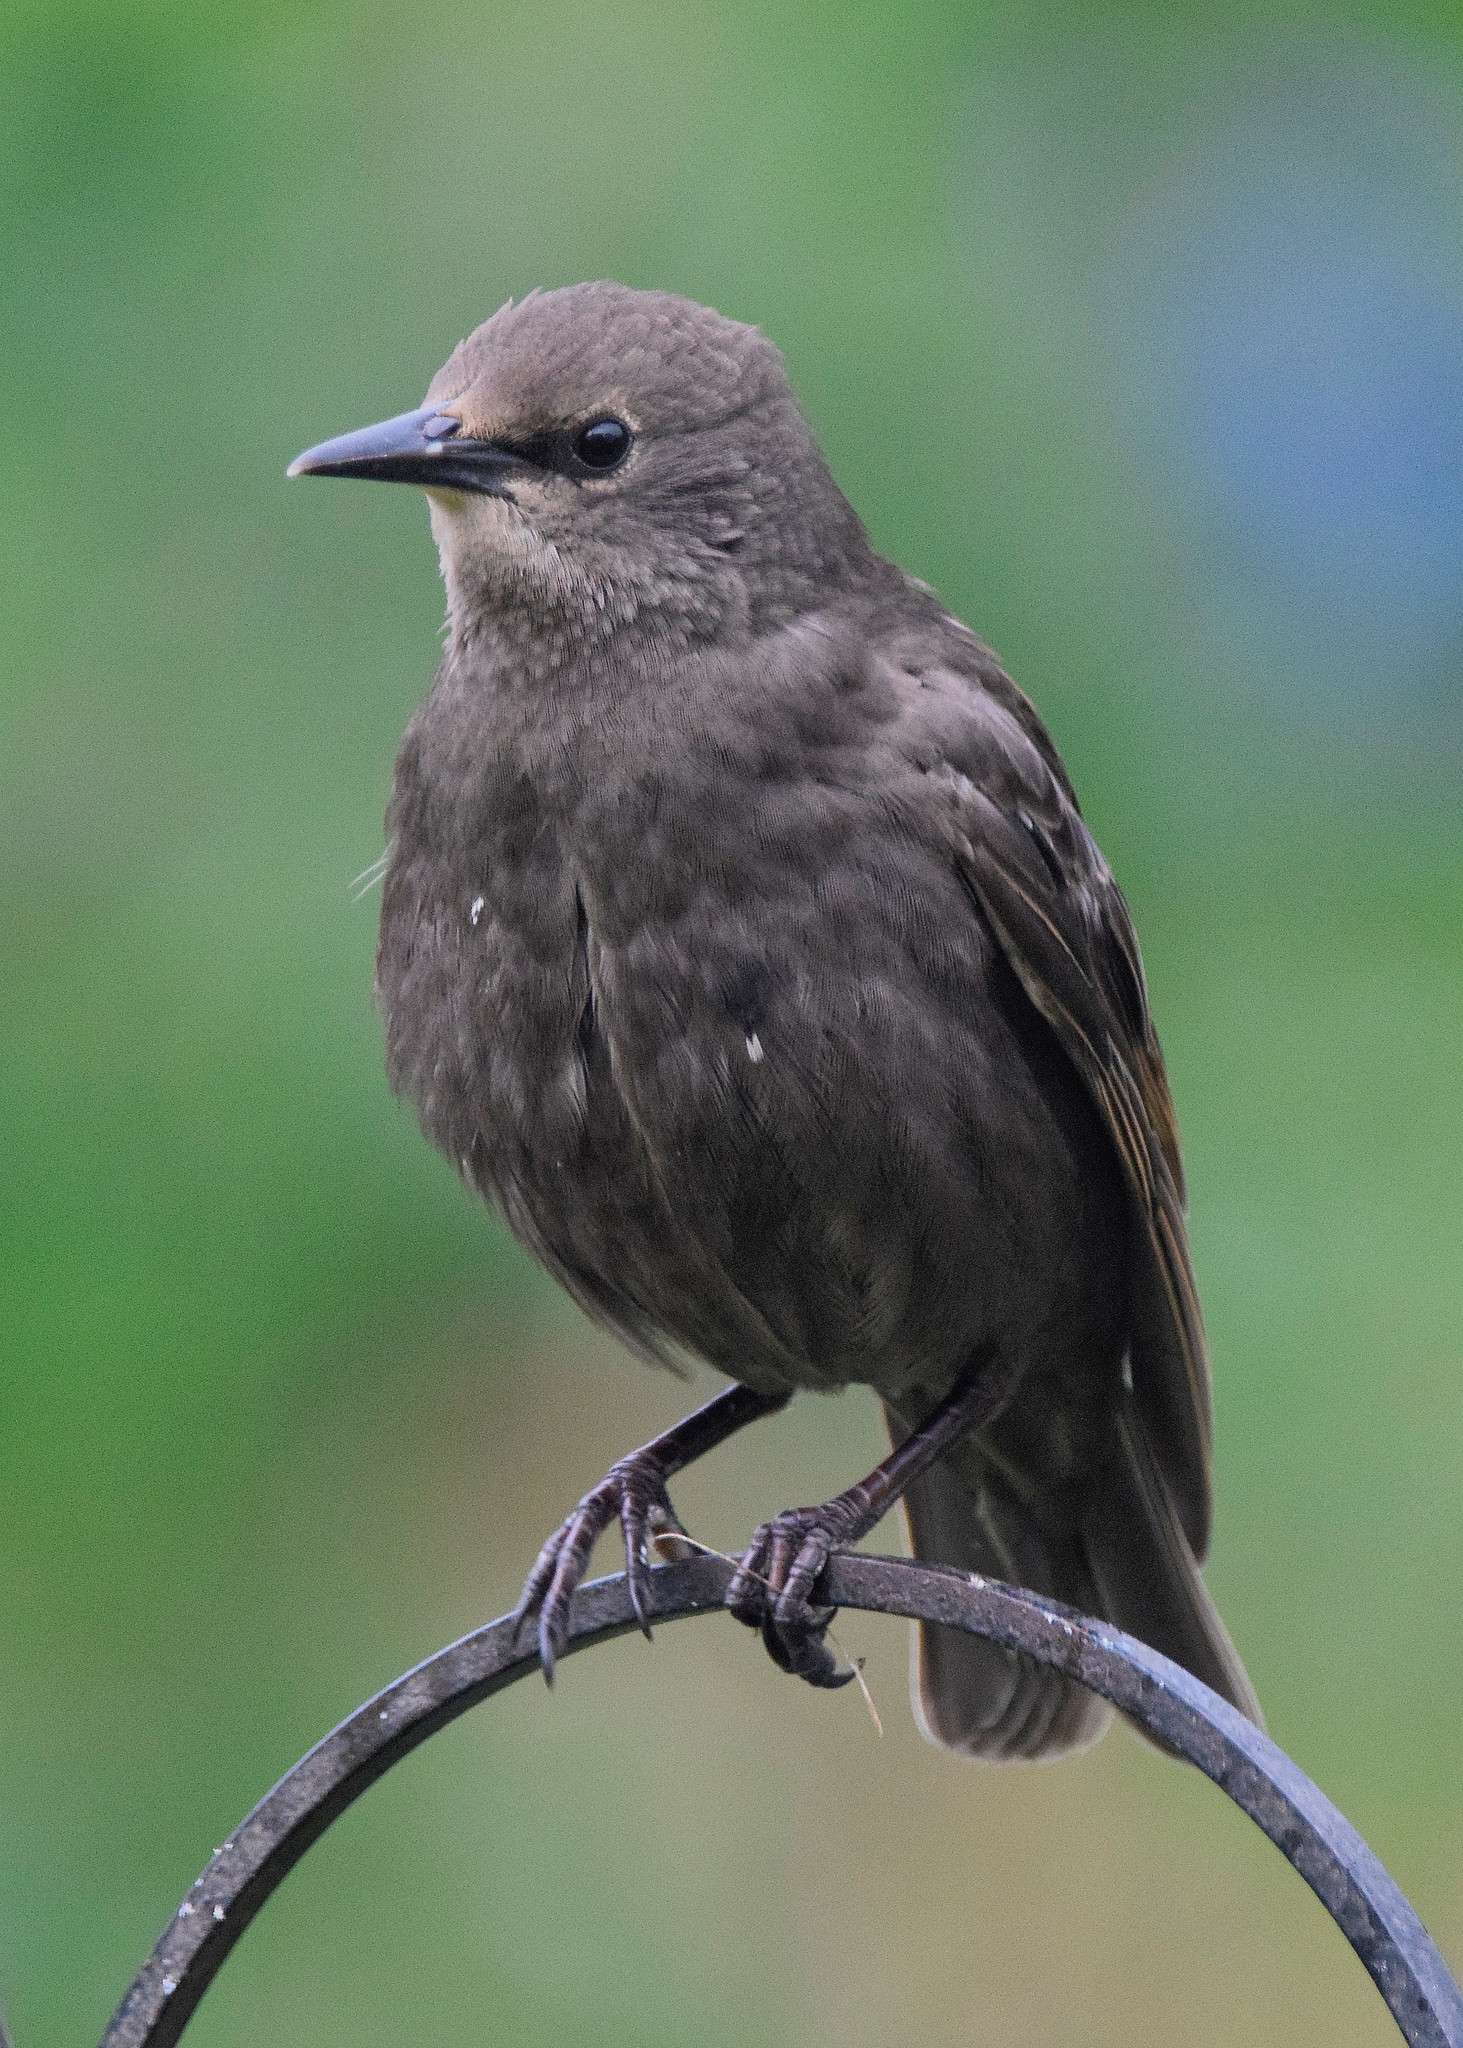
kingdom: Animalia
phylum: Chordata
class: Aves
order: Passeriformes
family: Sturnidae
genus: Sturnus
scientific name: Sturnus vulgaris
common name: Common starling
